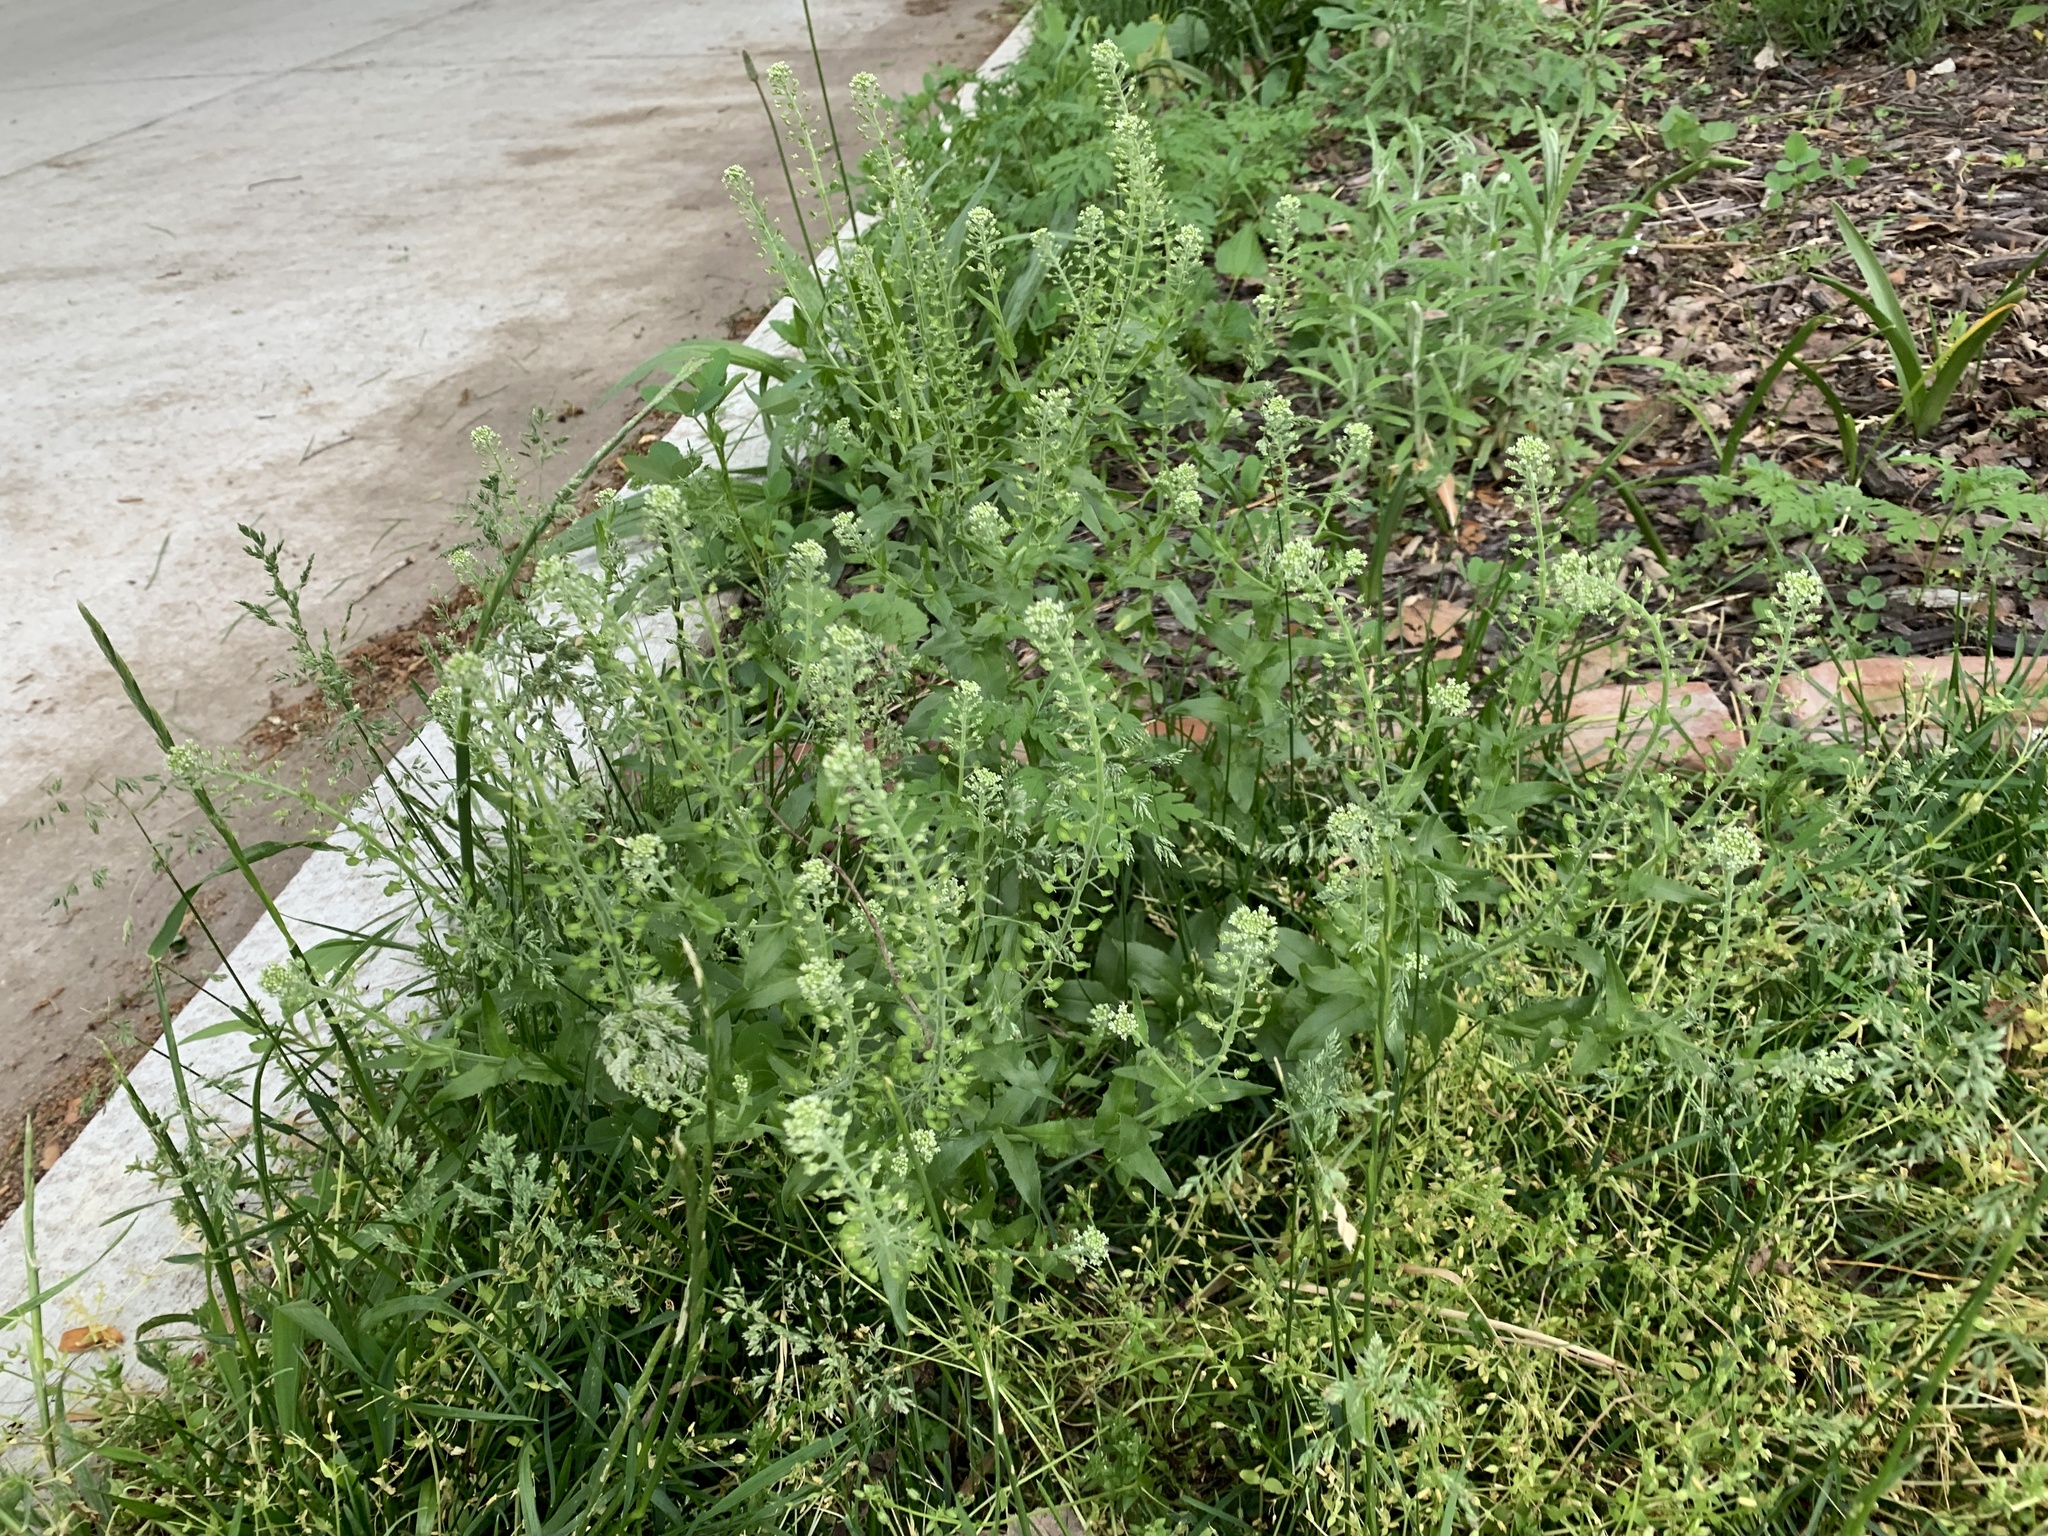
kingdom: Plantae
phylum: Tracheophyta
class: Magnoliopsida
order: Brassicales
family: Brassicaceae
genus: Lepidium
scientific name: Lepidium campestre
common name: Field pepperwort
